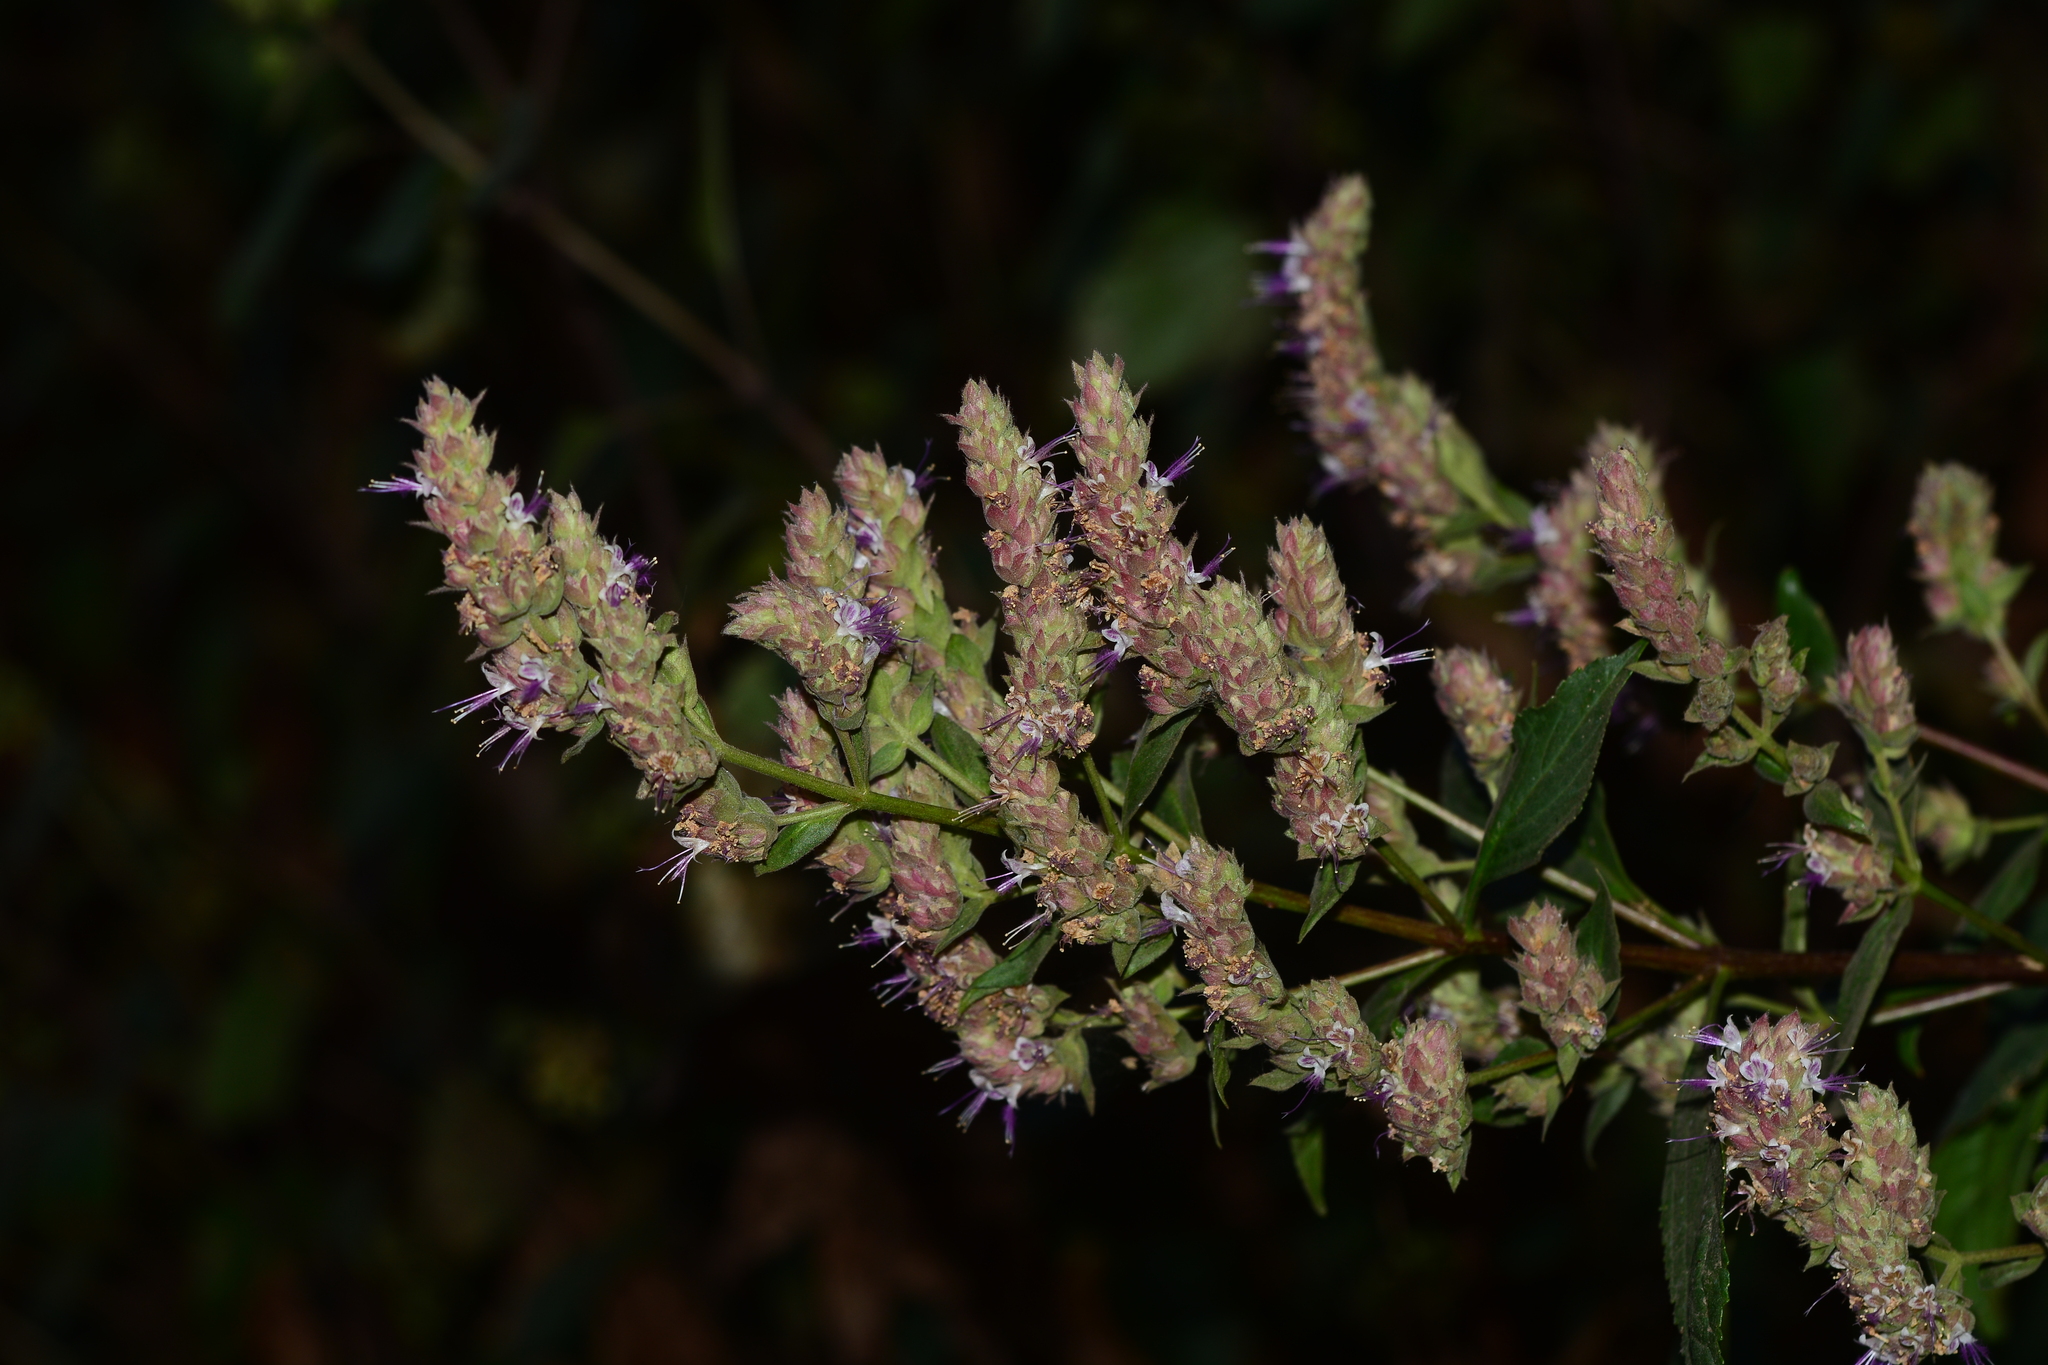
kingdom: Plantae
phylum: Tracheophyta
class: Magnoliopsida
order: Lamiales
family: Lamiaceae
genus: Pogostemon
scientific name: Pogostemon benghalensis
